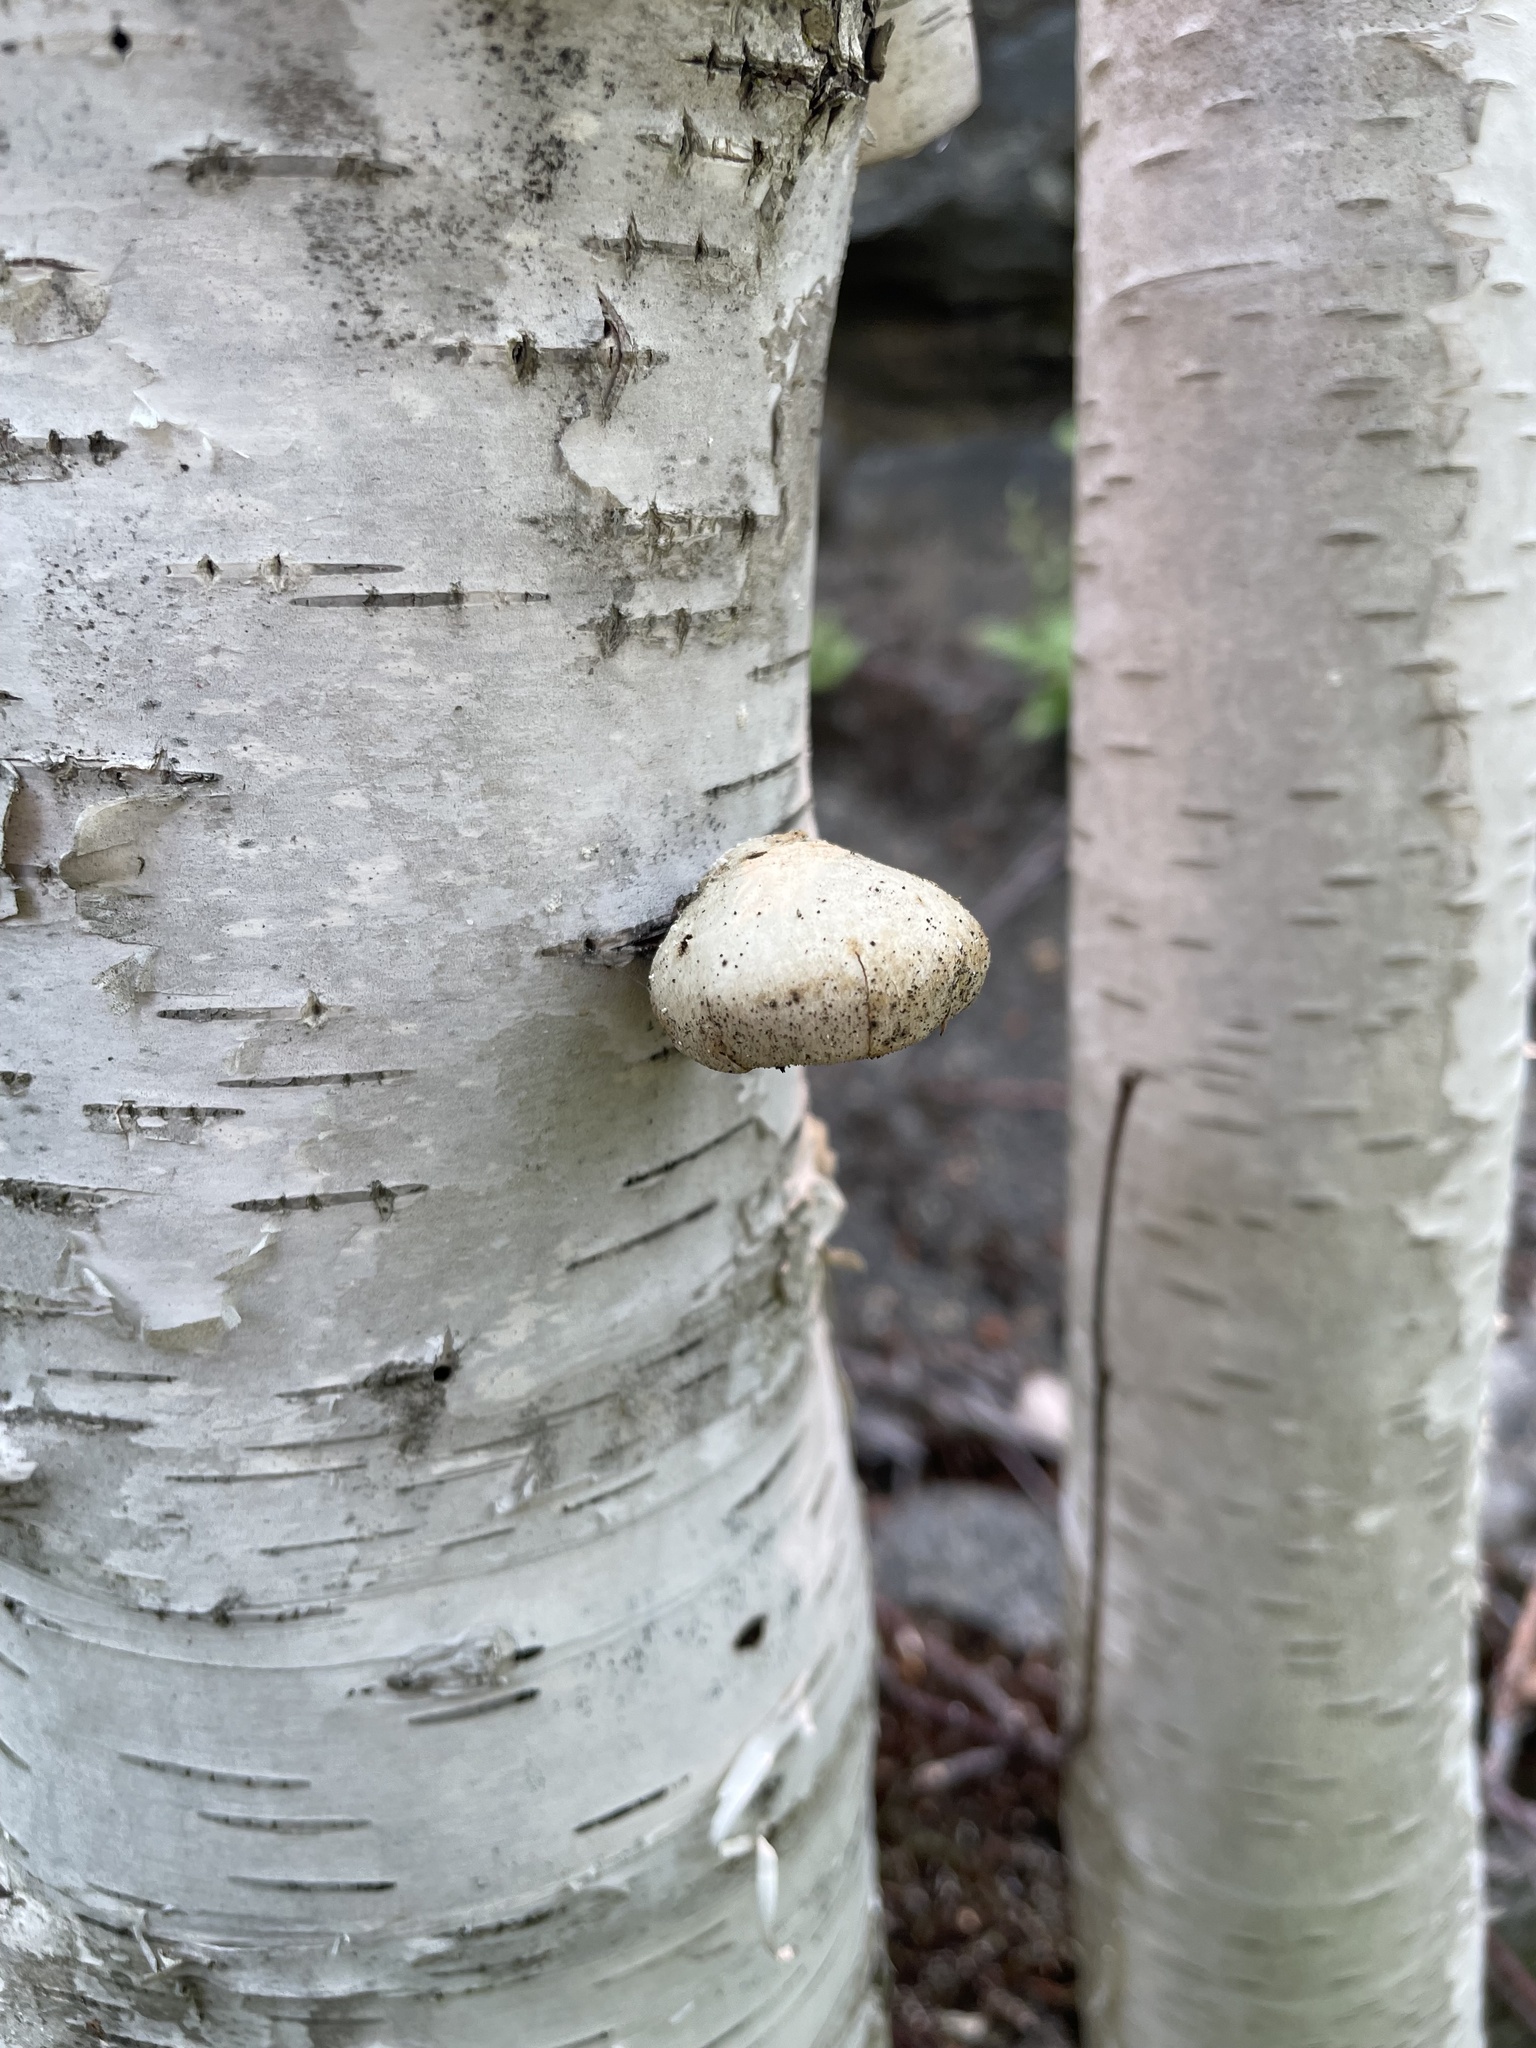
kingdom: Fungi
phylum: Basidiomycota
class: Agaricomycetes
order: Polyporales
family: Fomitopsidaceae
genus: Fomitopsis
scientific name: Fomitopsis betulina
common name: Birch polypore
